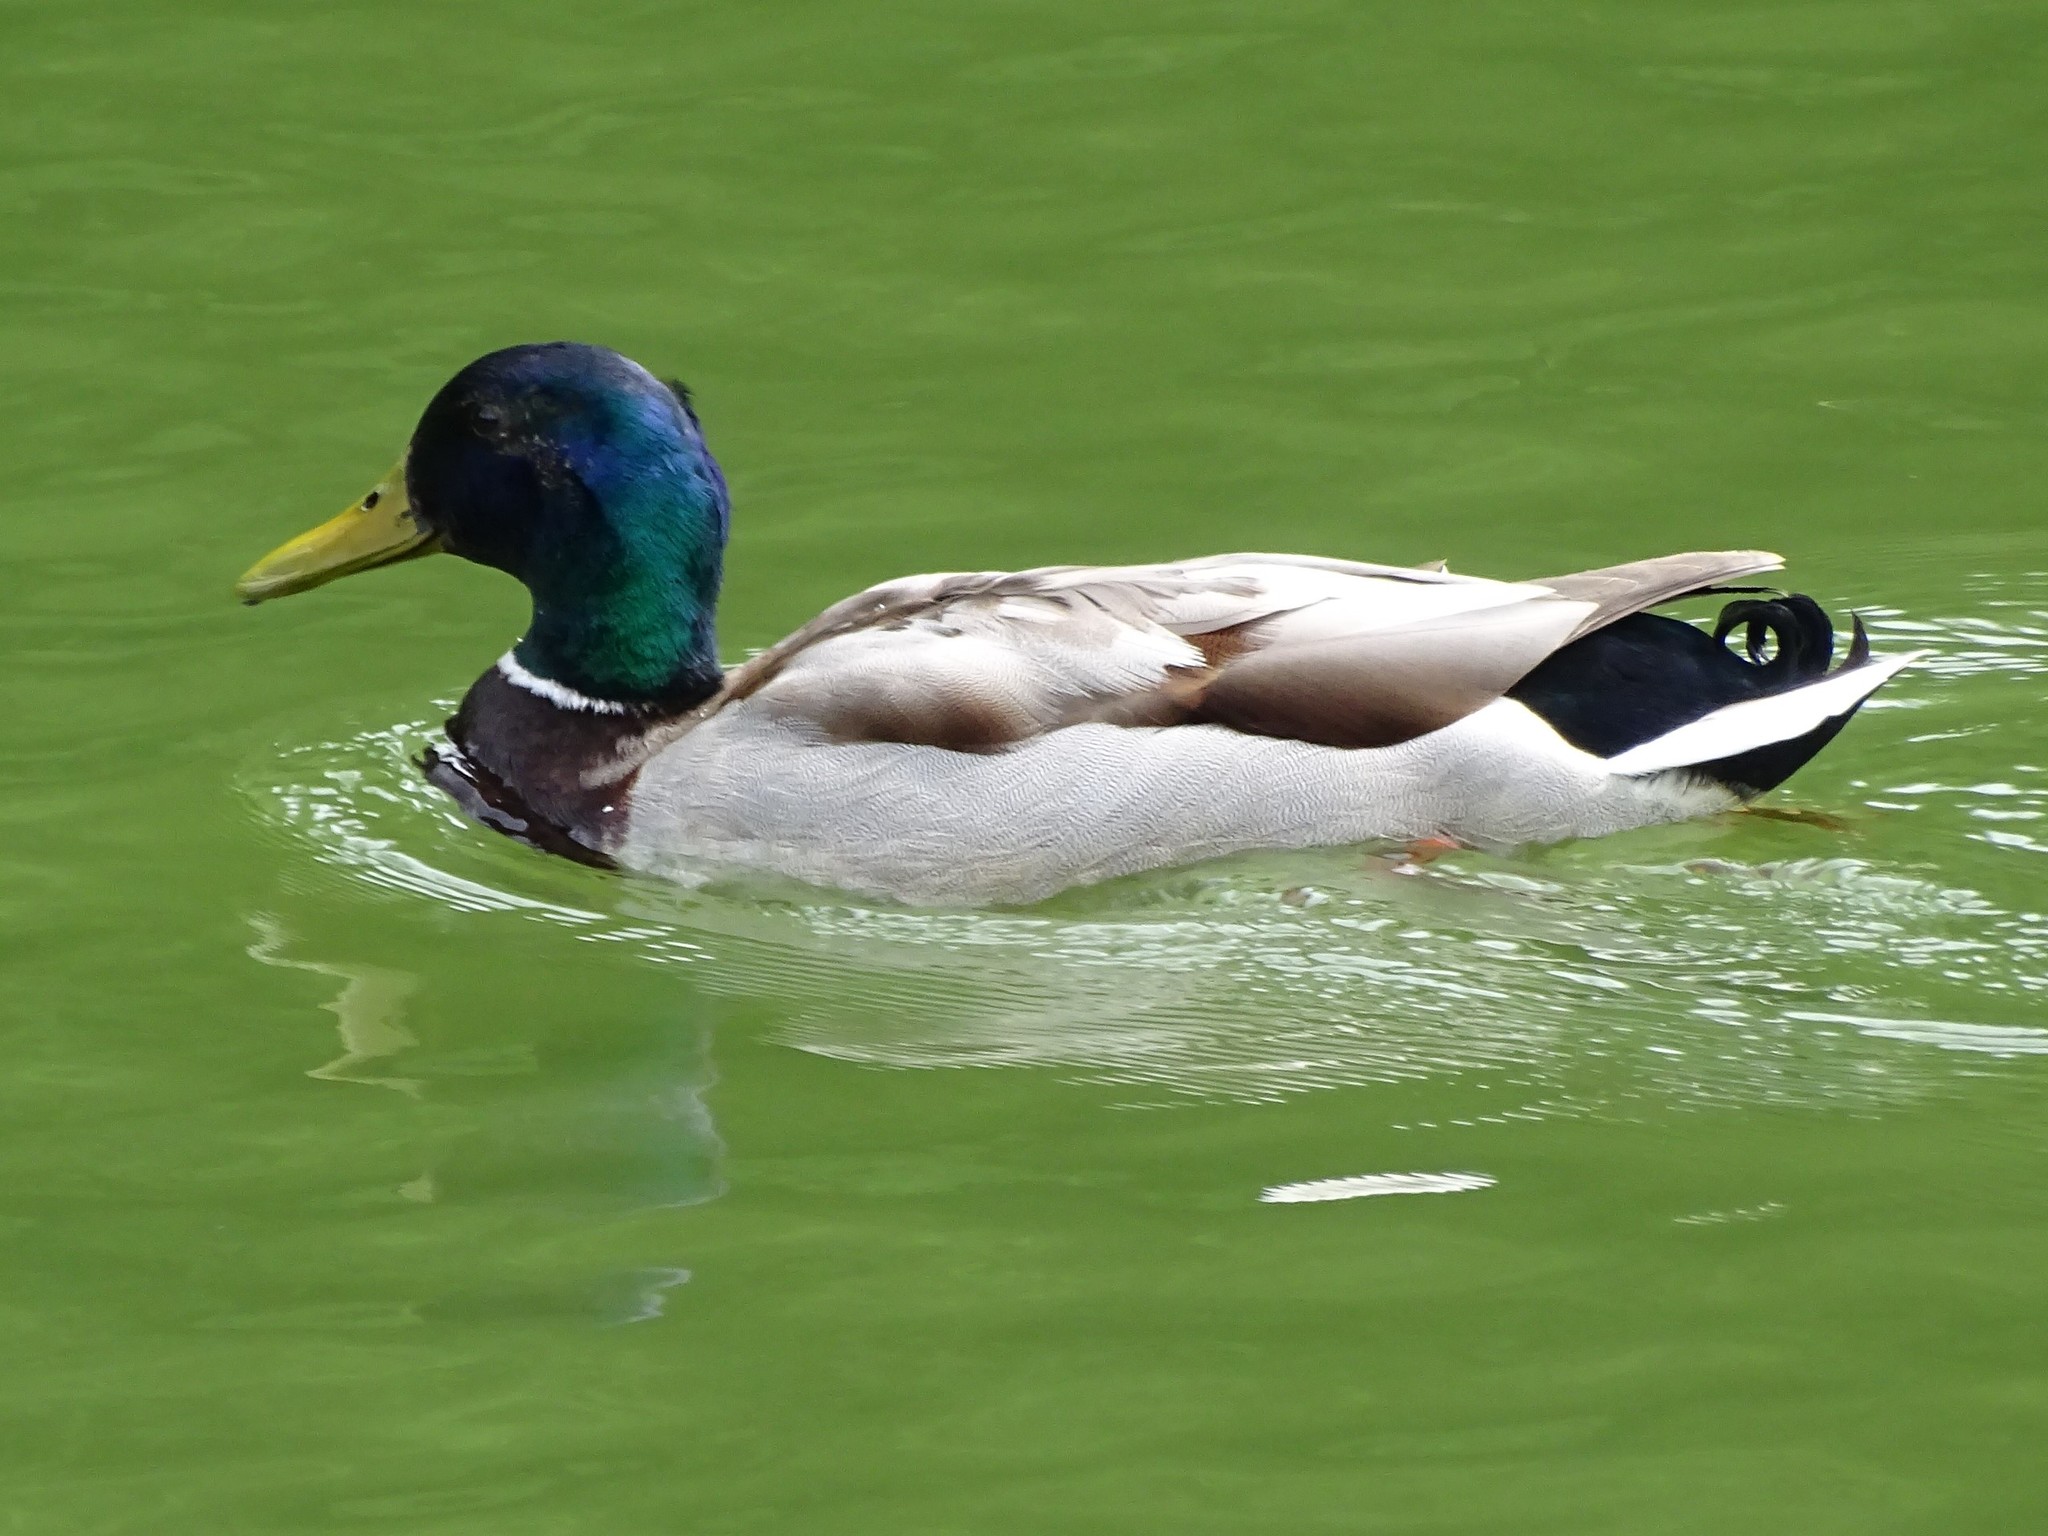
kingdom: Animalia
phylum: Chordata
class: Aves
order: Anseriformes
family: Anatidae
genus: Anas
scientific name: Anas platyrhynchos
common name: Mallard
